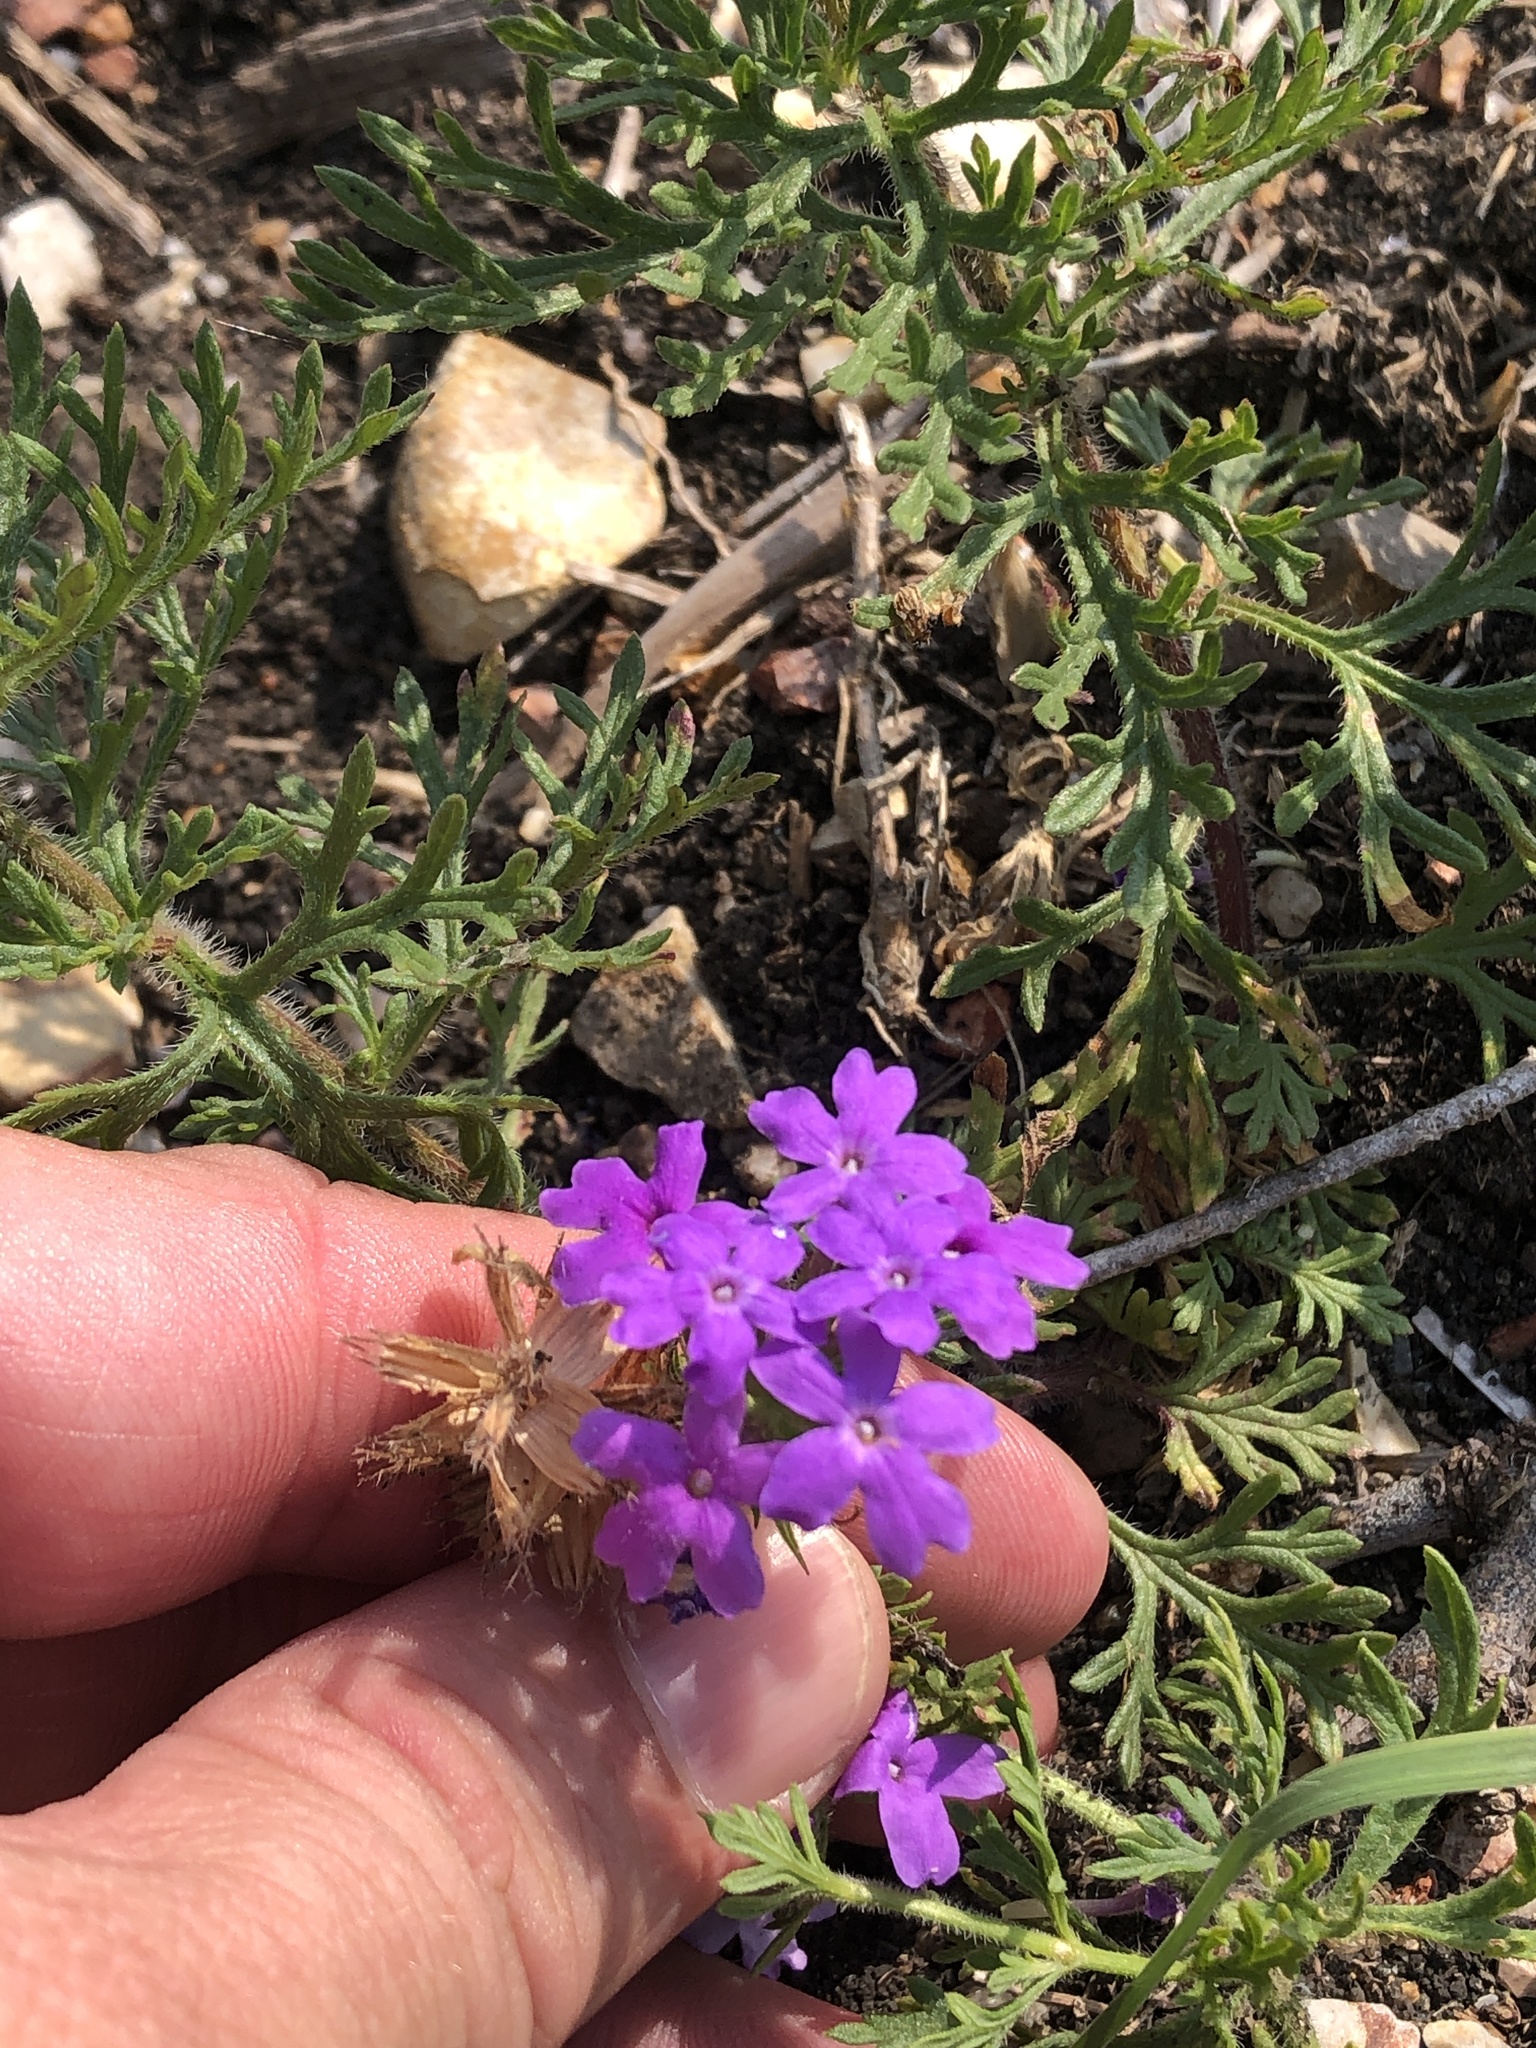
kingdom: Plantae
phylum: Tracheophyta
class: Magnoliopsida
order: Lamiales
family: Verbenaceae
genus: Verbena
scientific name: Verbena bipinnatifida
